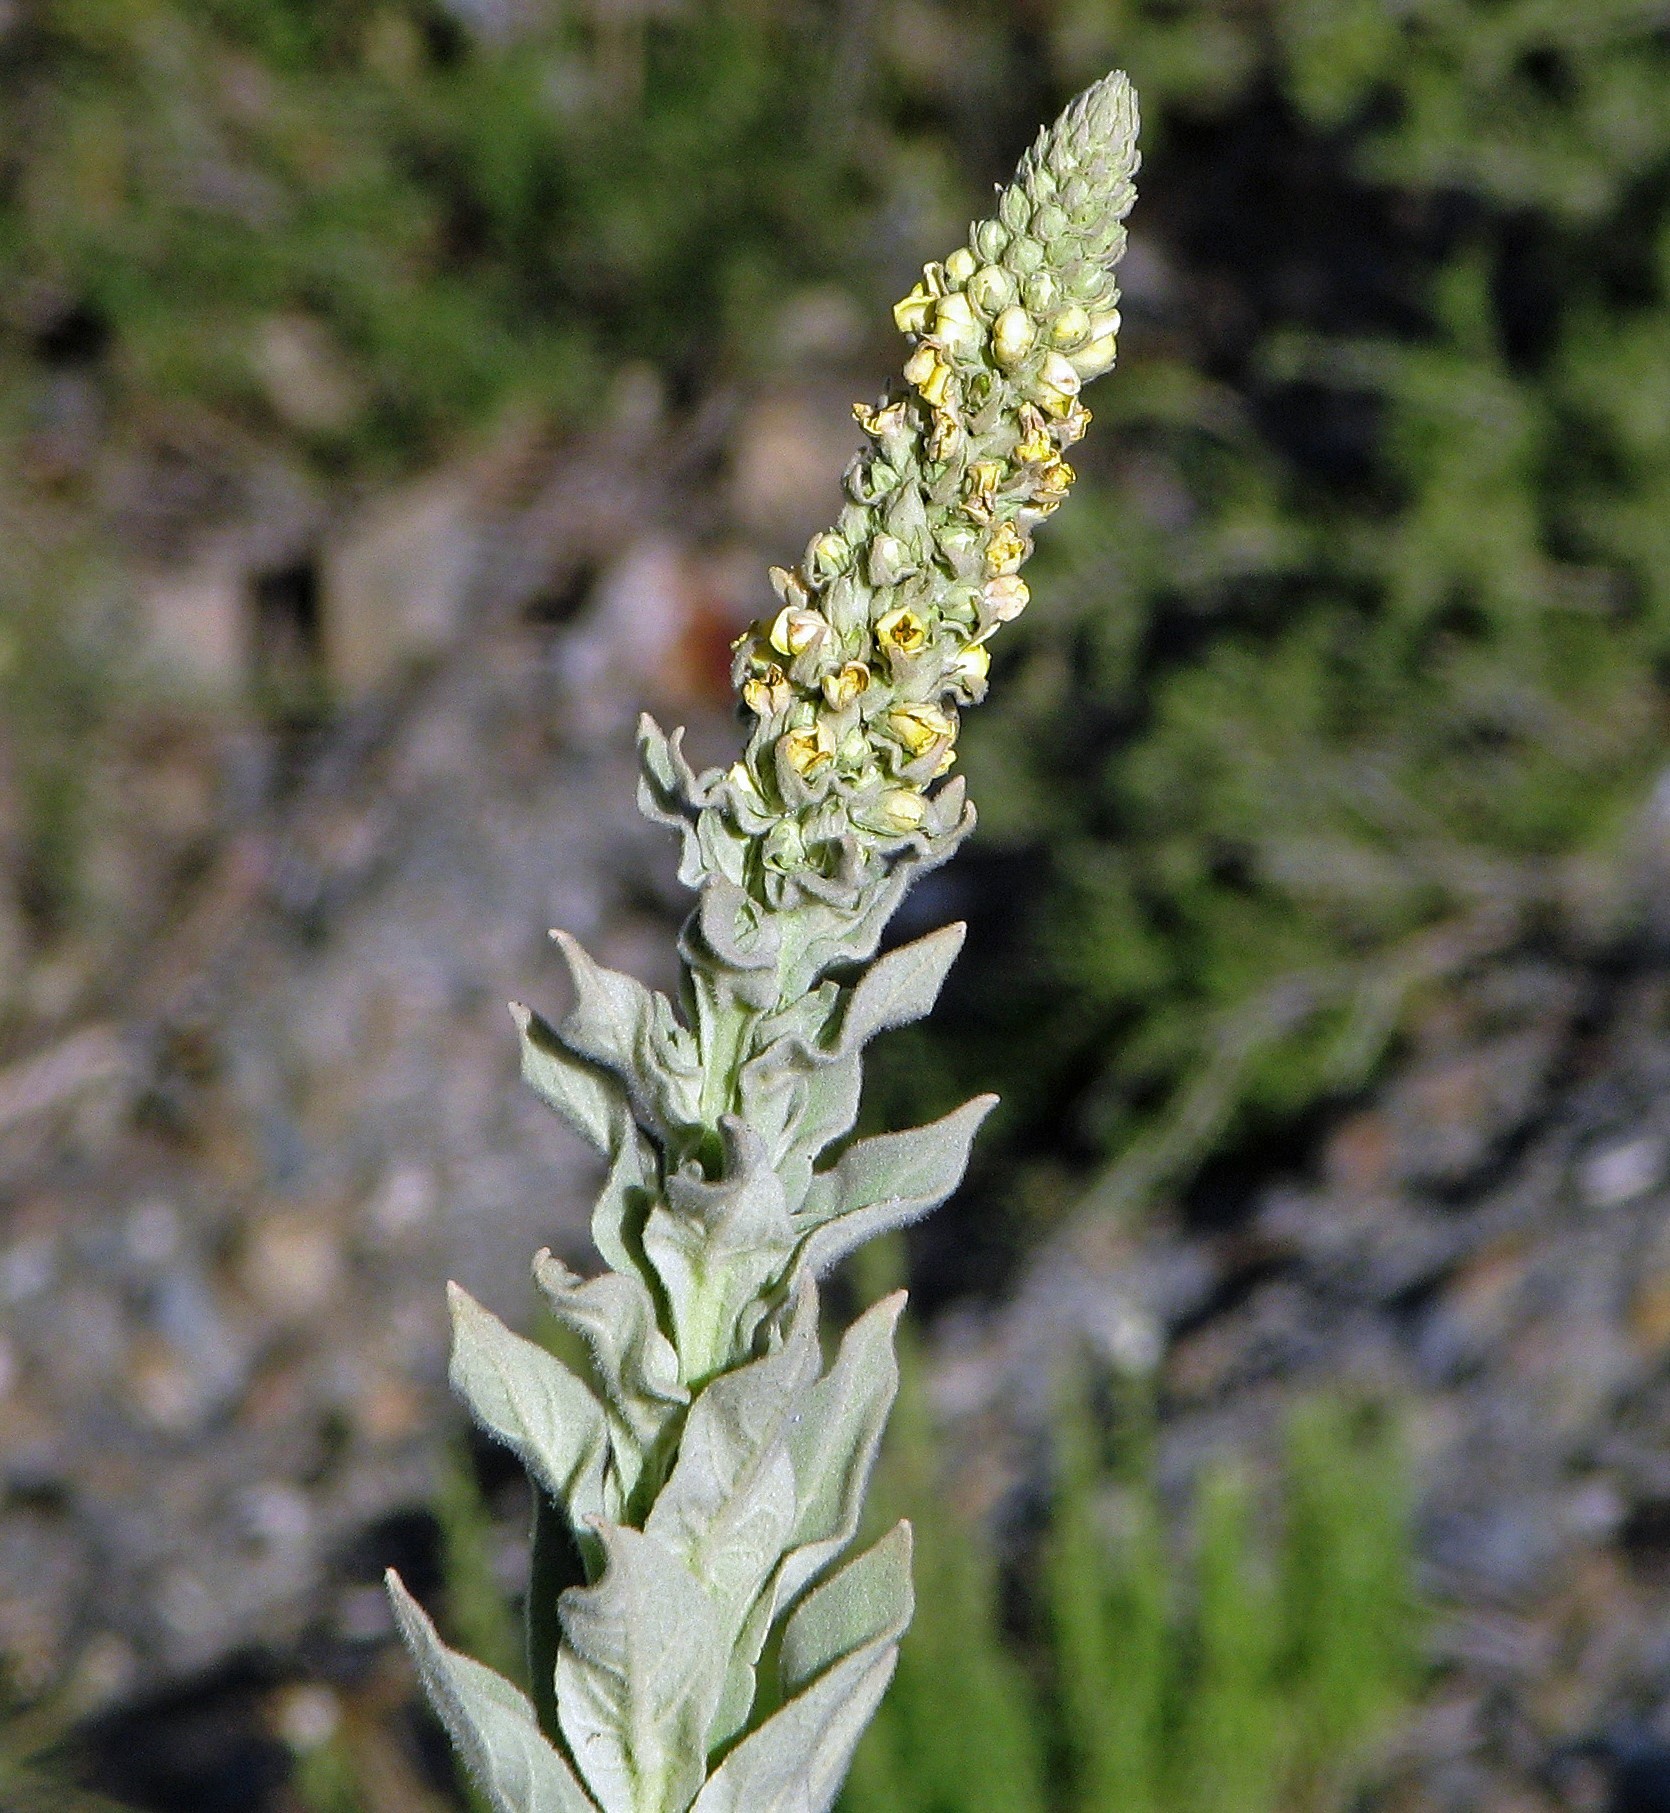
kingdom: Plantae
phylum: Tracheophyta
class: Magnoliopsida
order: Lamiales
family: Scrophulariaceae
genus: Verbascum
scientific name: Verbascum thapsus
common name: Common mullein
